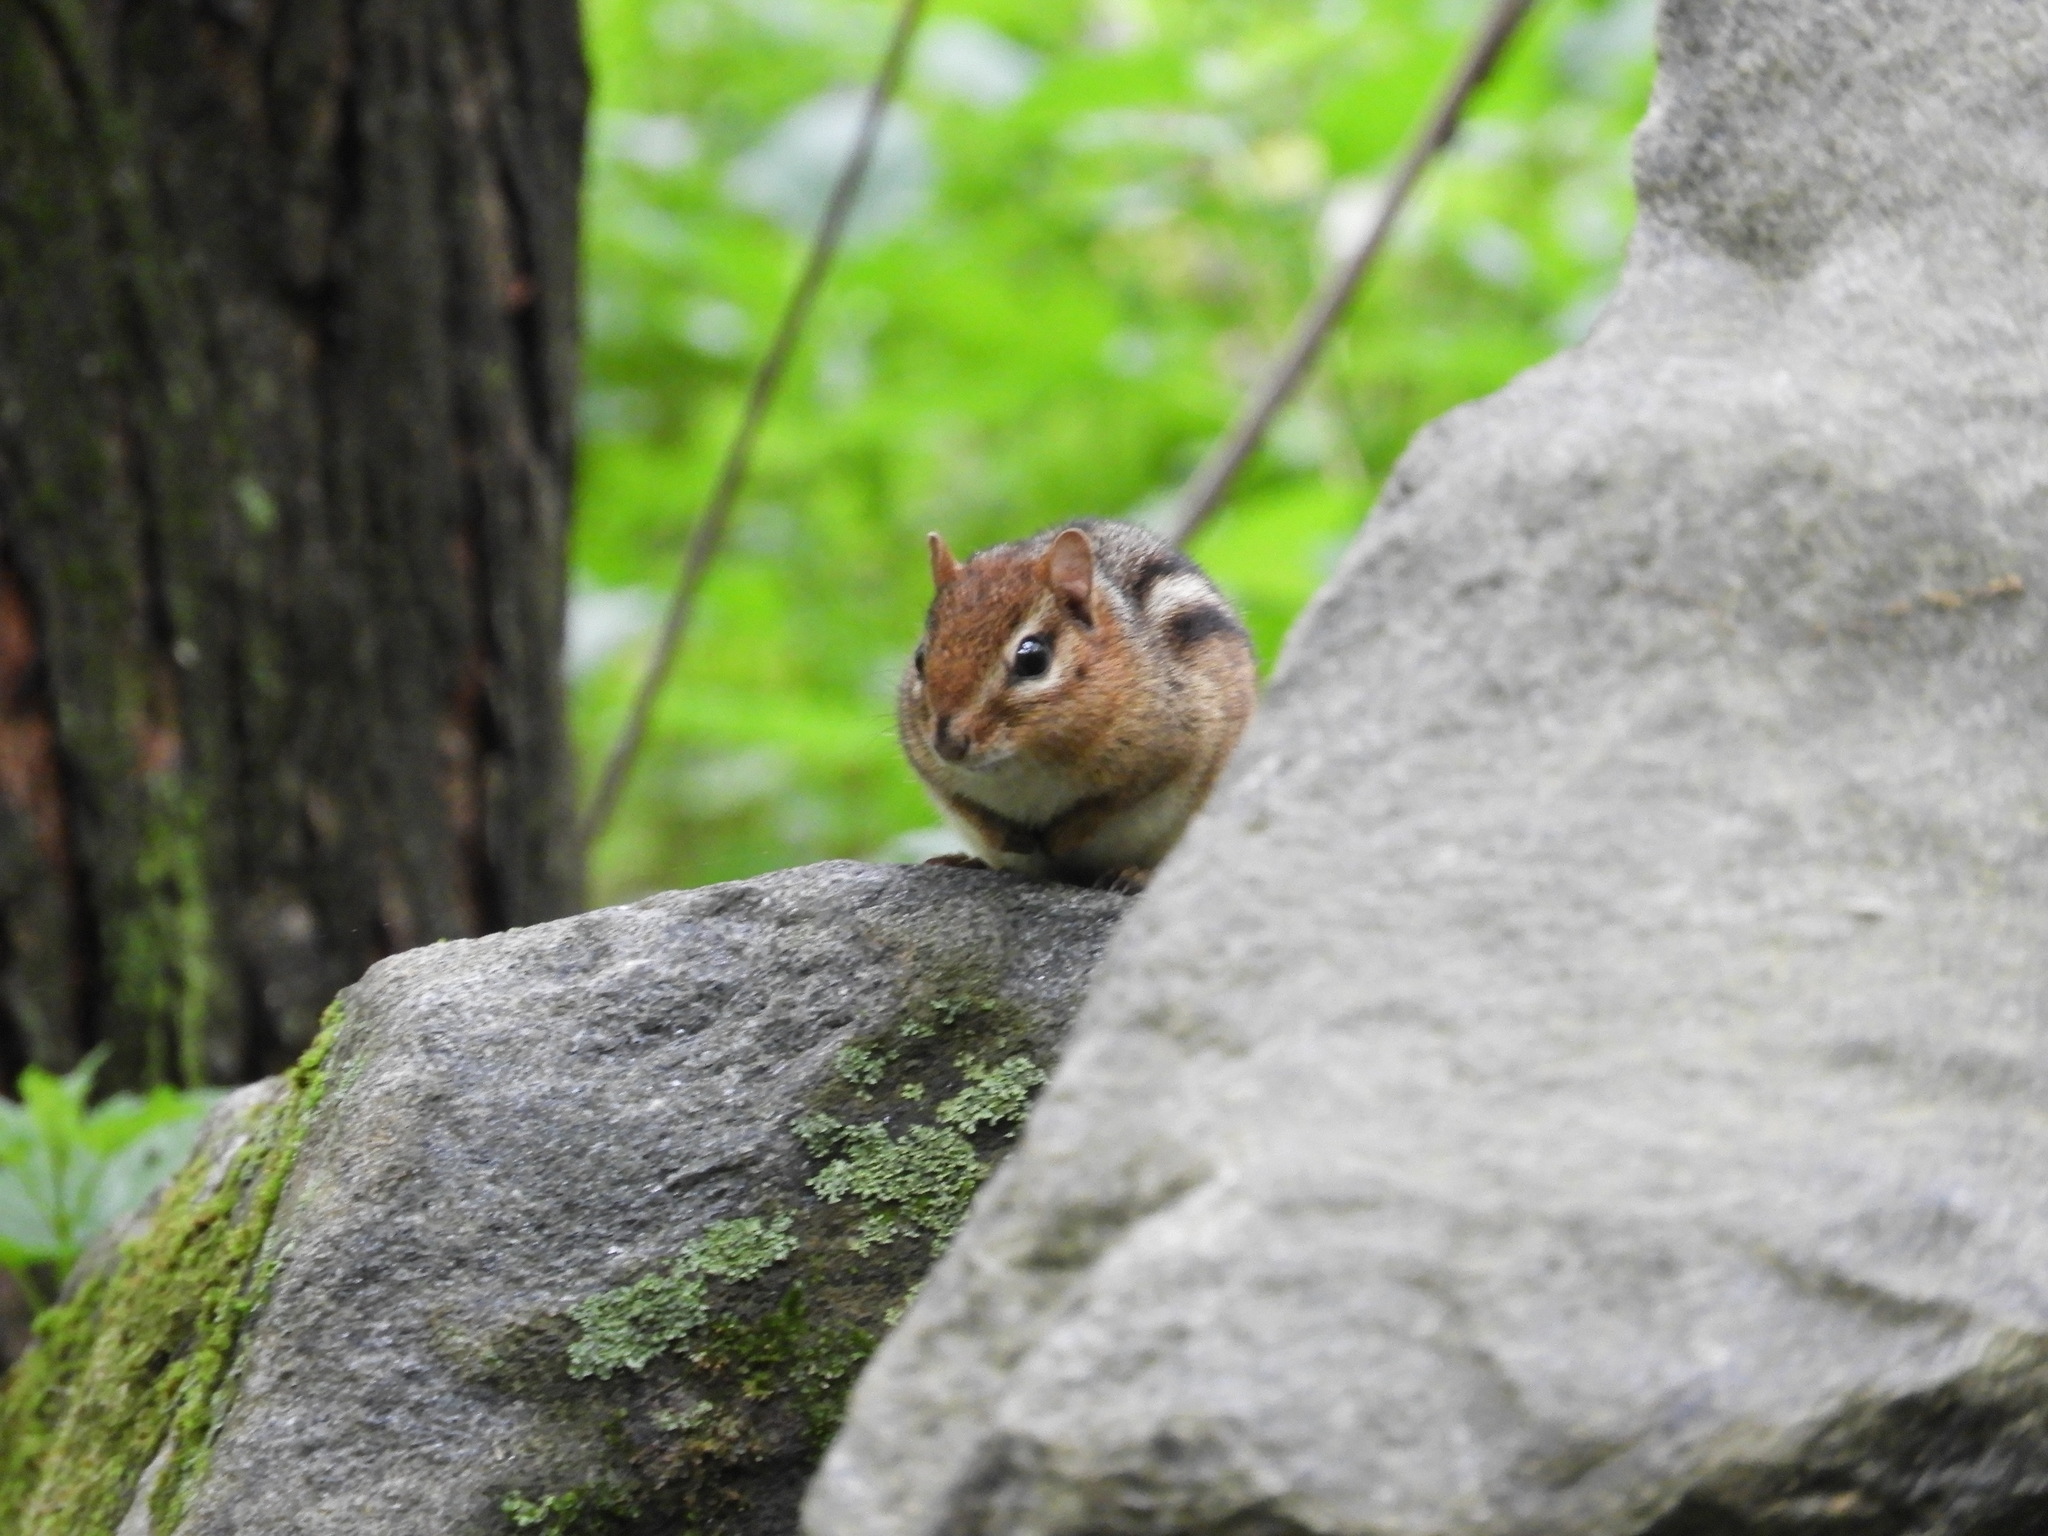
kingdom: Animalia
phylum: Chordata
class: Mammalia
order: Rodentia
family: Sciuridae
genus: Tamias
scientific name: Tamias striatus
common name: Eastern chipmunk
